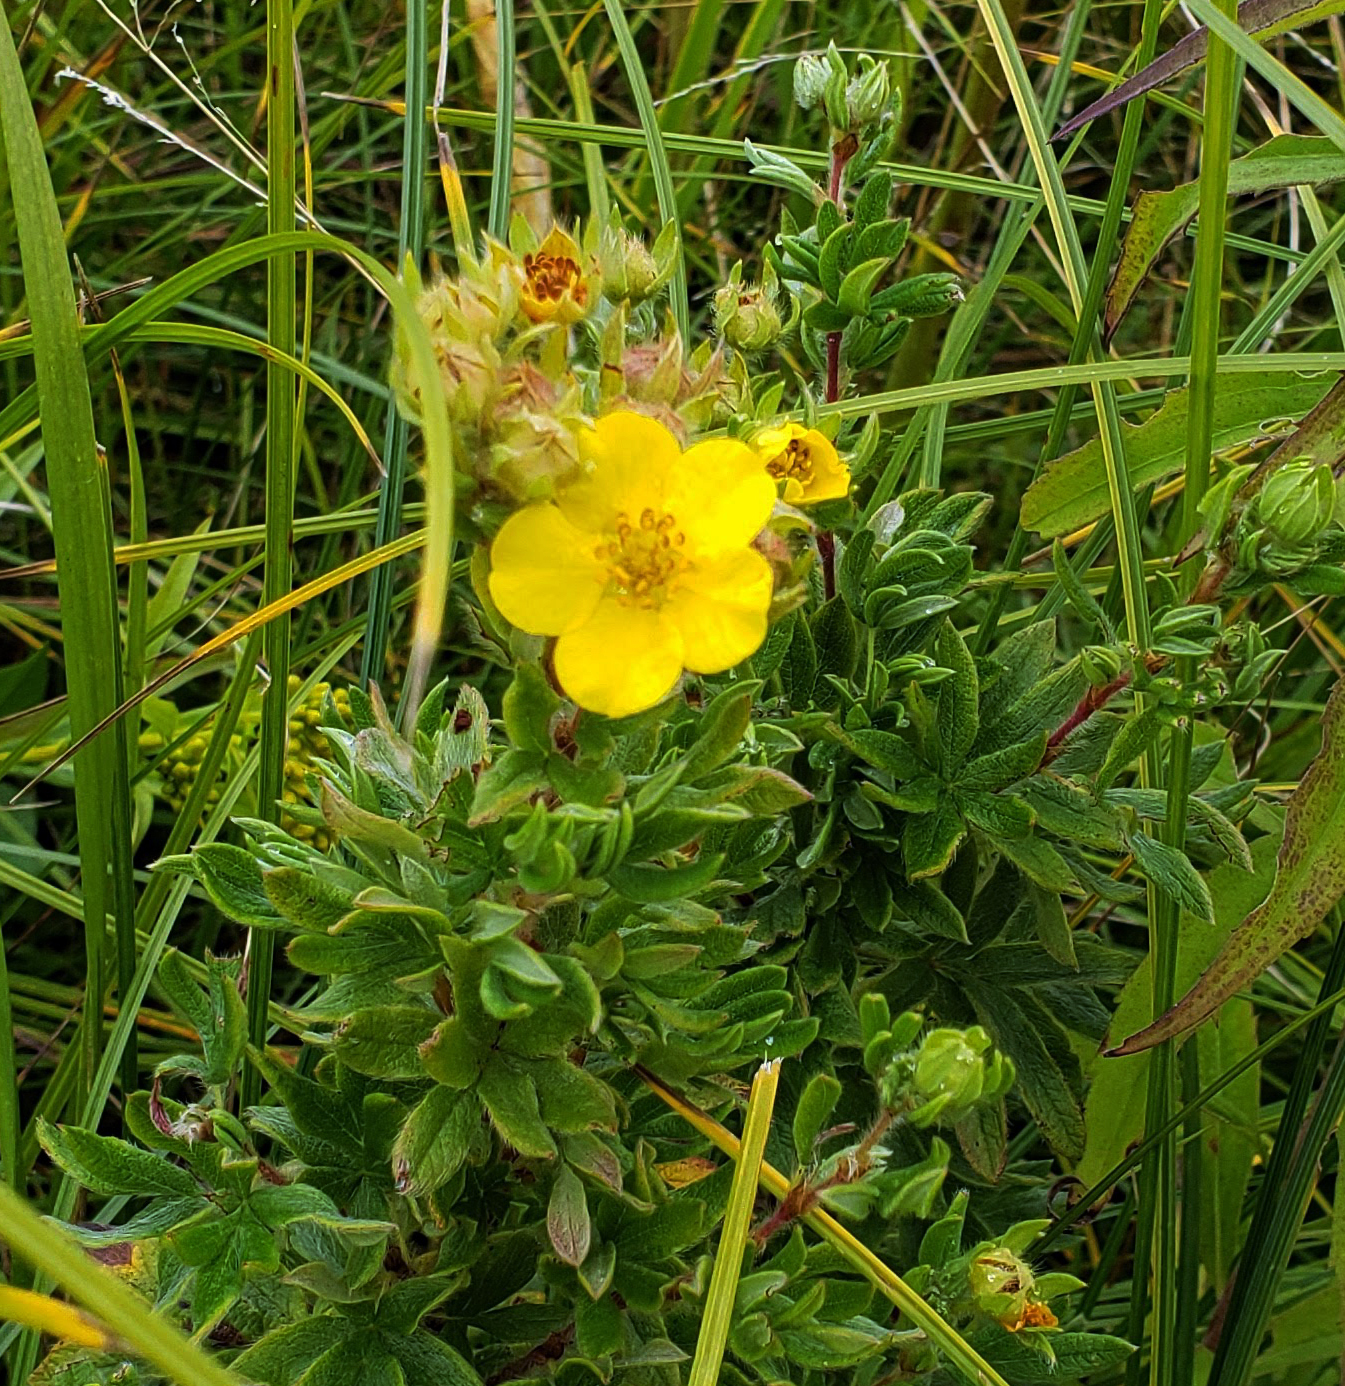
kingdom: Plantae
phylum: Tracheophyta
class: Magnoliopsida
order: Rosales
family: Rosaceae
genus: Dasiphora
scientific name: Dasiphora fruticosa
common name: Shrubby cinquefoil
